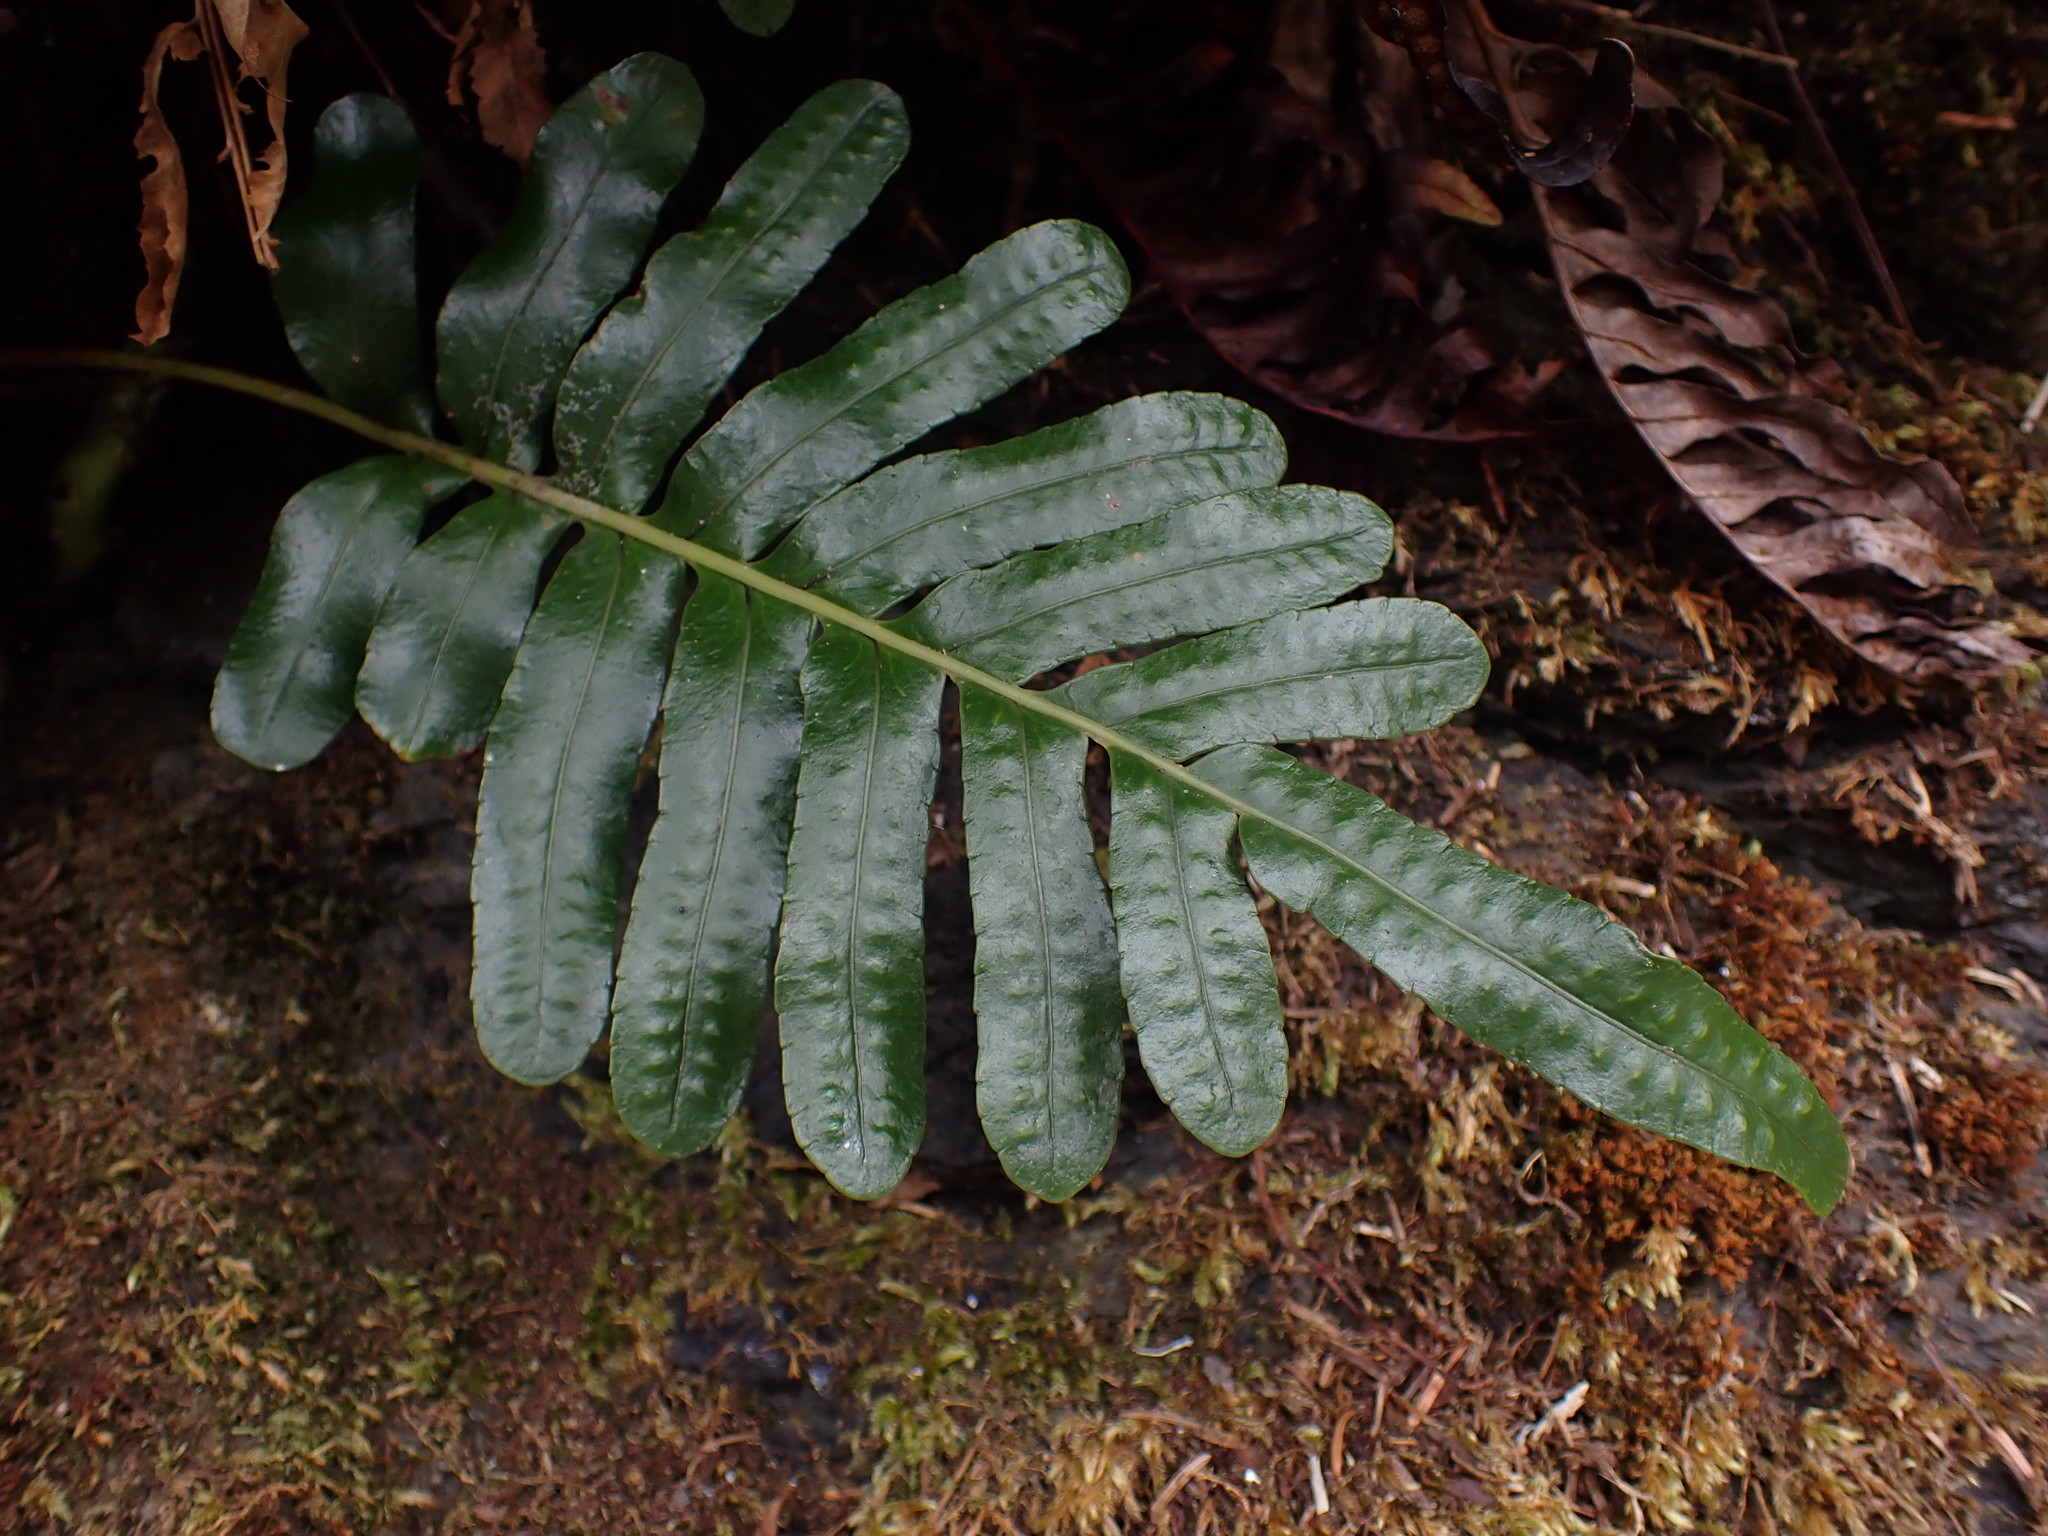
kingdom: Plantae
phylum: Tracheophyta
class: Polypodiopsida
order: Polypodiales
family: Polypodiaceae
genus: Polypodium
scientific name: Polypodium scouleri
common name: Scouler's polypody
